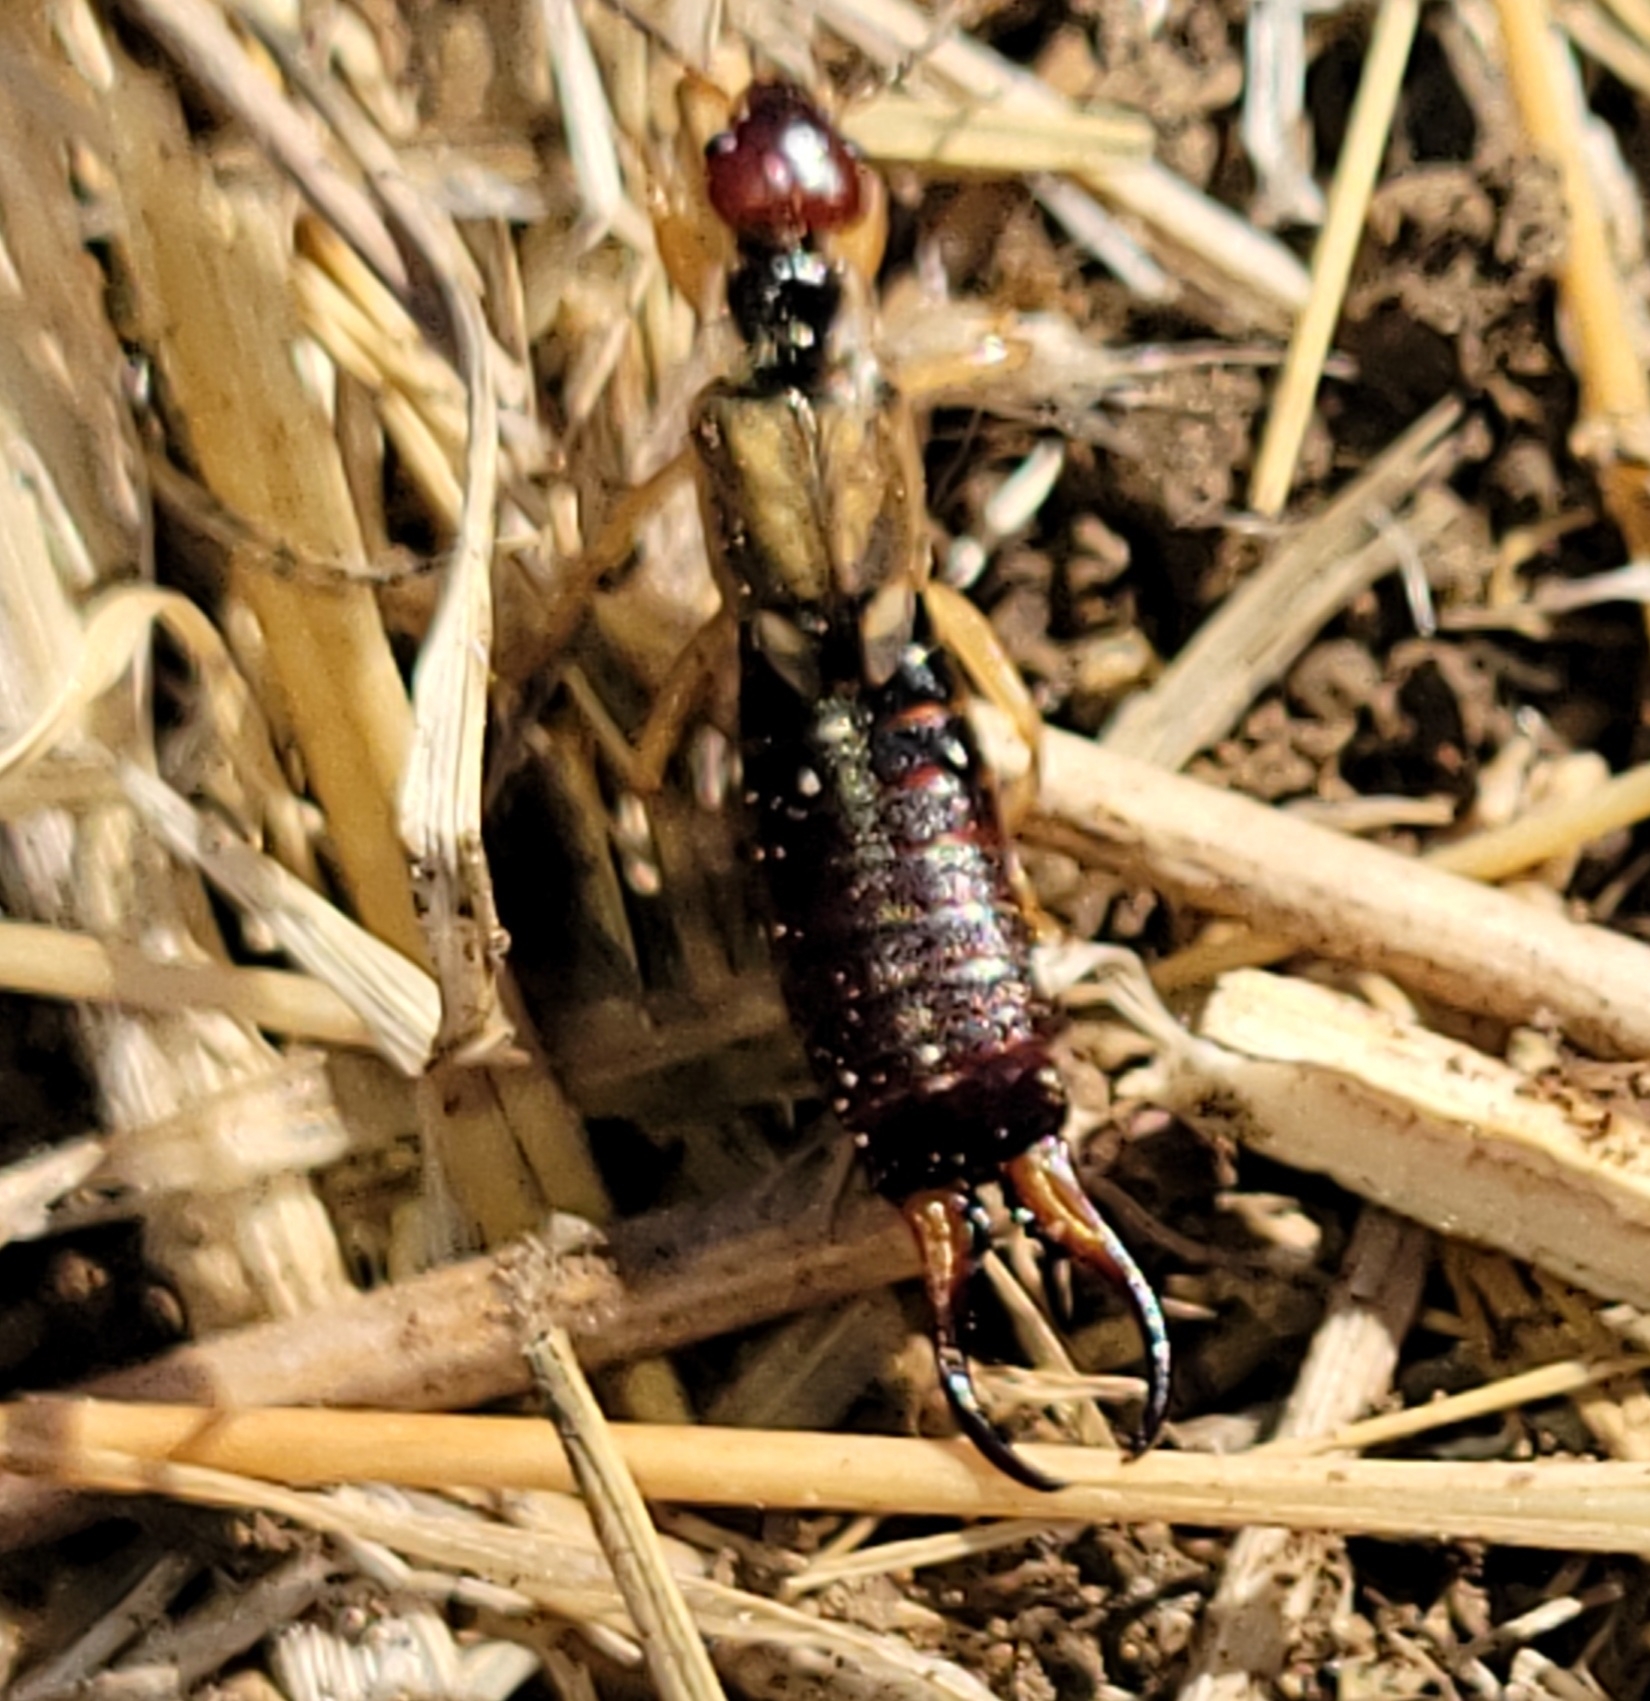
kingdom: Animalia
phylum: Arthropoda
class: Insecta
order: Dermaptera
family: Forficulidae
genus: Forficula
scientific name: Forficula
